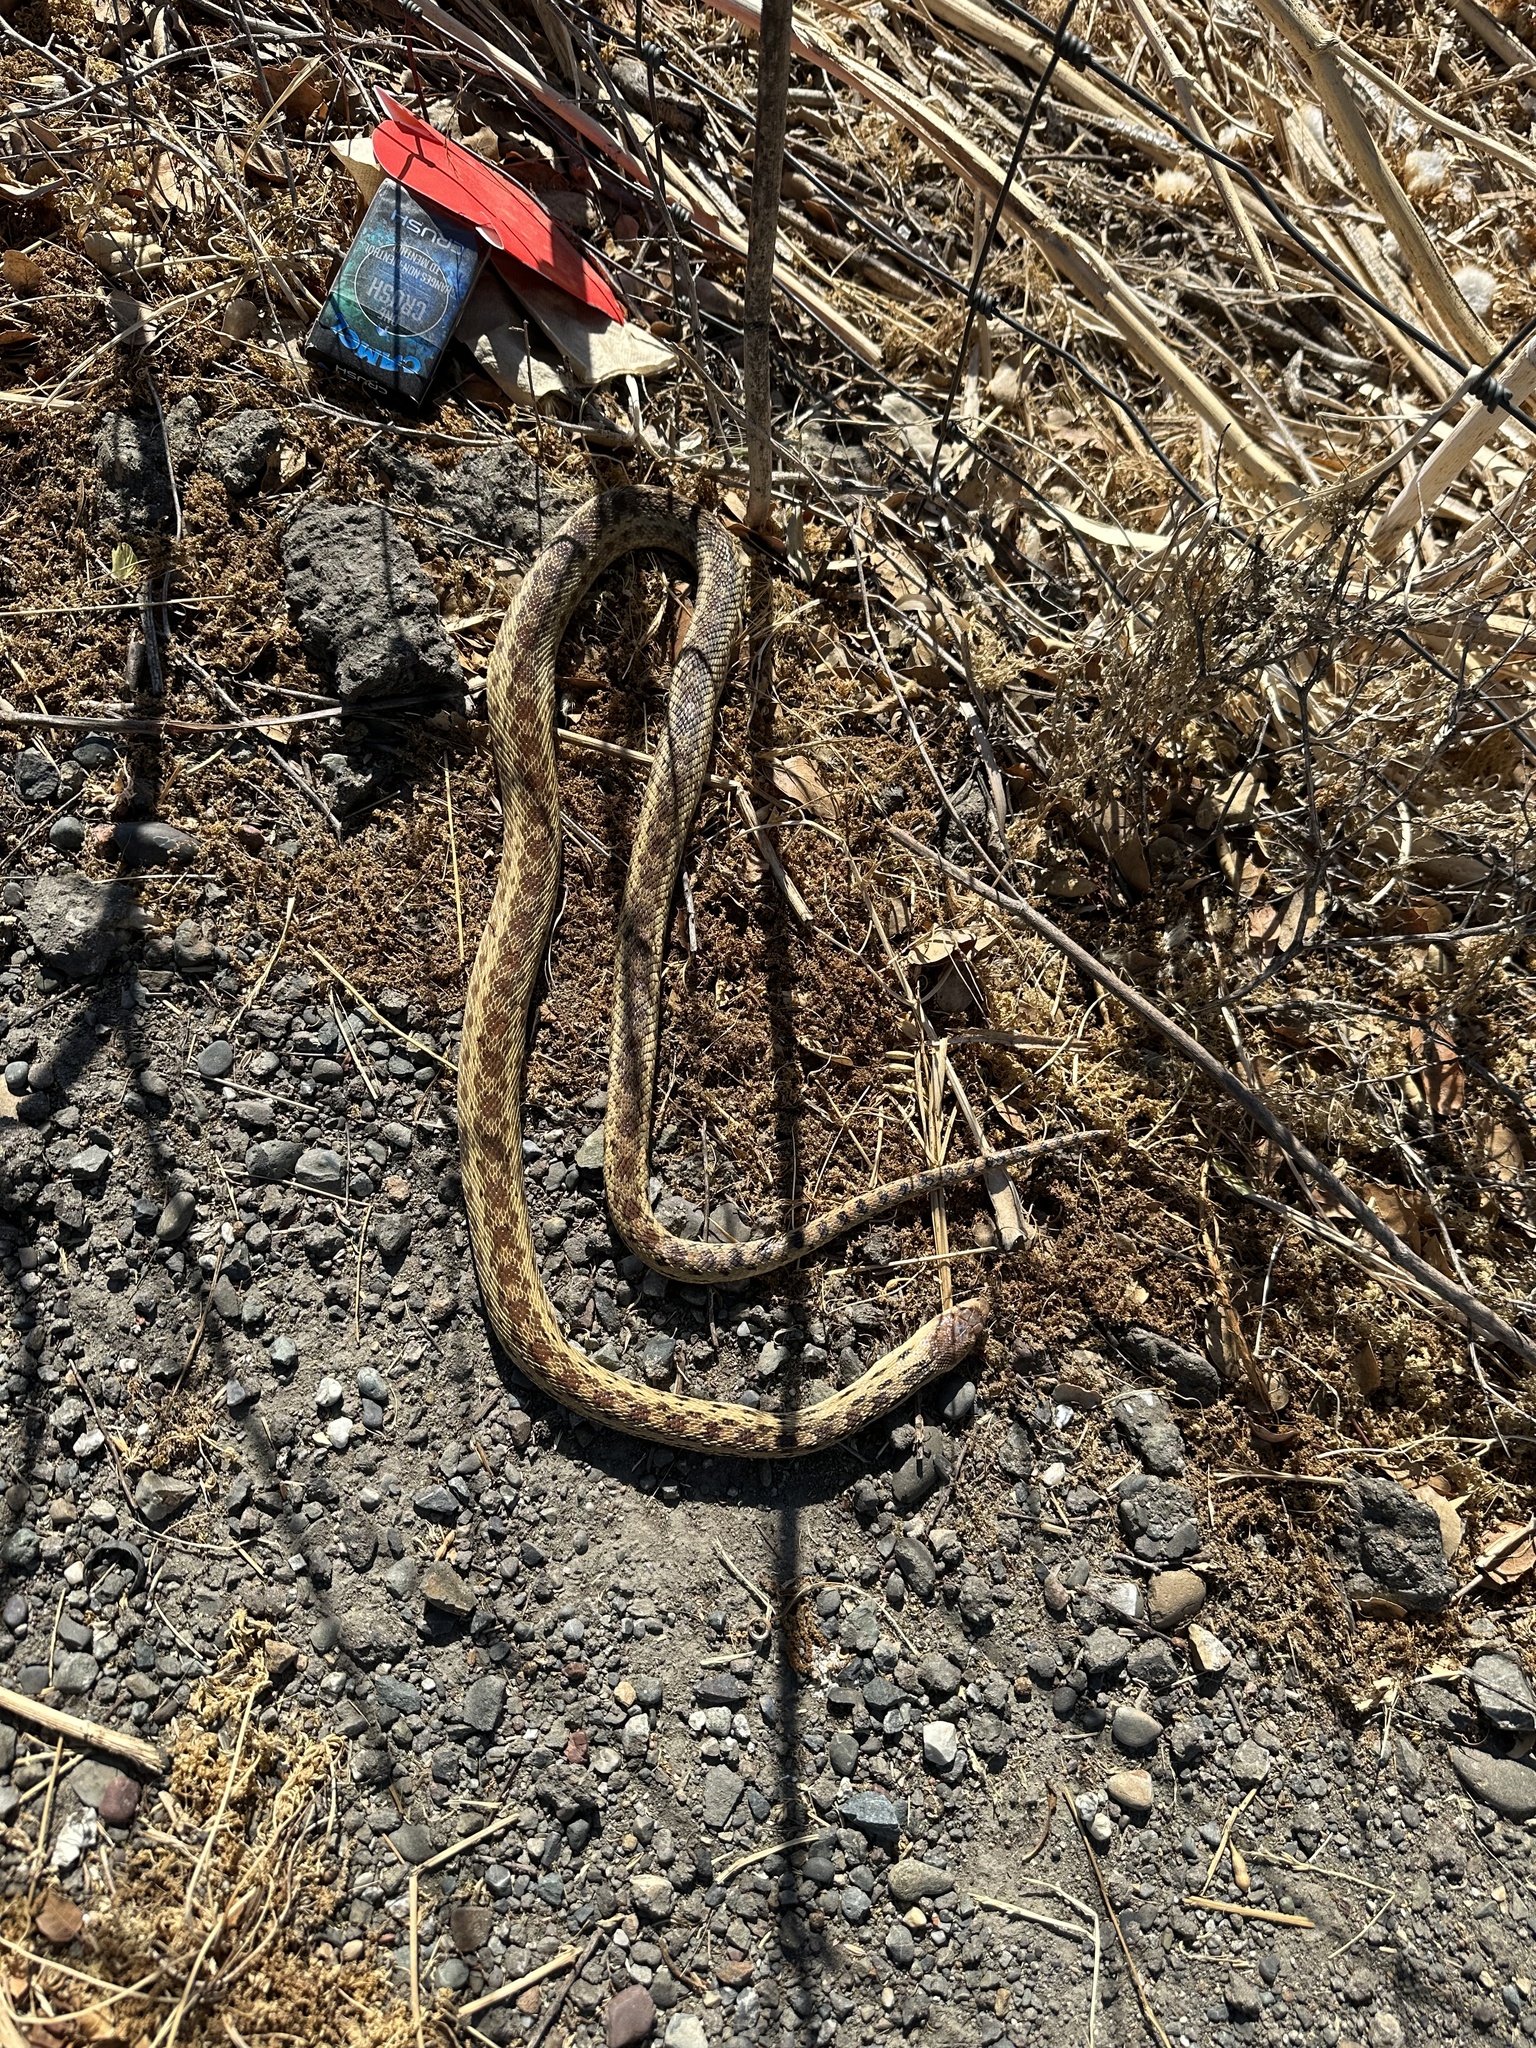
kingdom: Animalia
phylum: Chordata
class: Squamata
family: Colubridae
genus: Pituophis
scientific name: Pituophis catenifer
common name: Gopher snake
